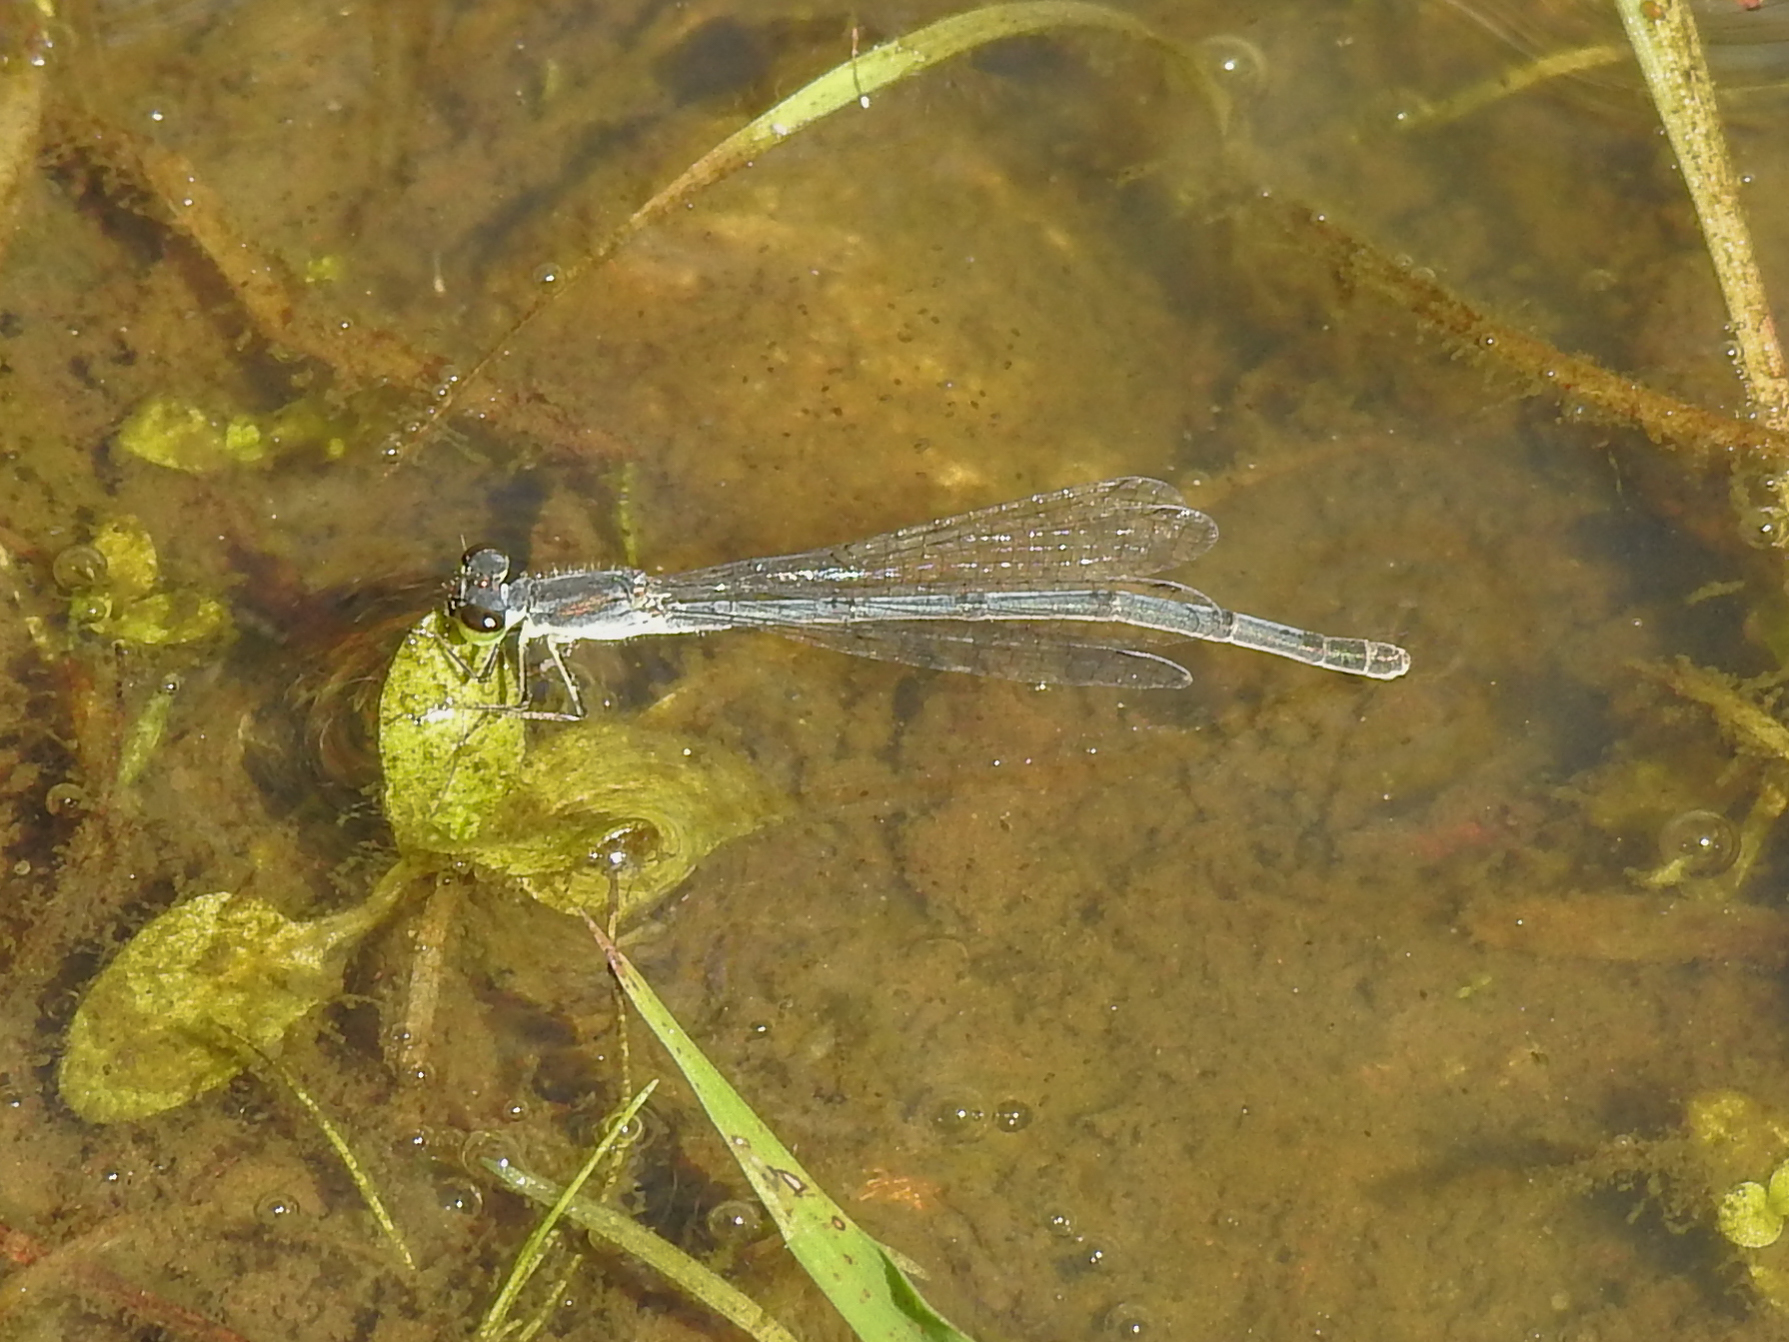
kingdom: Animalia
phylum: Arthropoda
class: Insecta
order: Odonata
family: Coenagrionidae
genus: Ischnura
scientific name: Ischnura posita
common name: Fragile forktail
